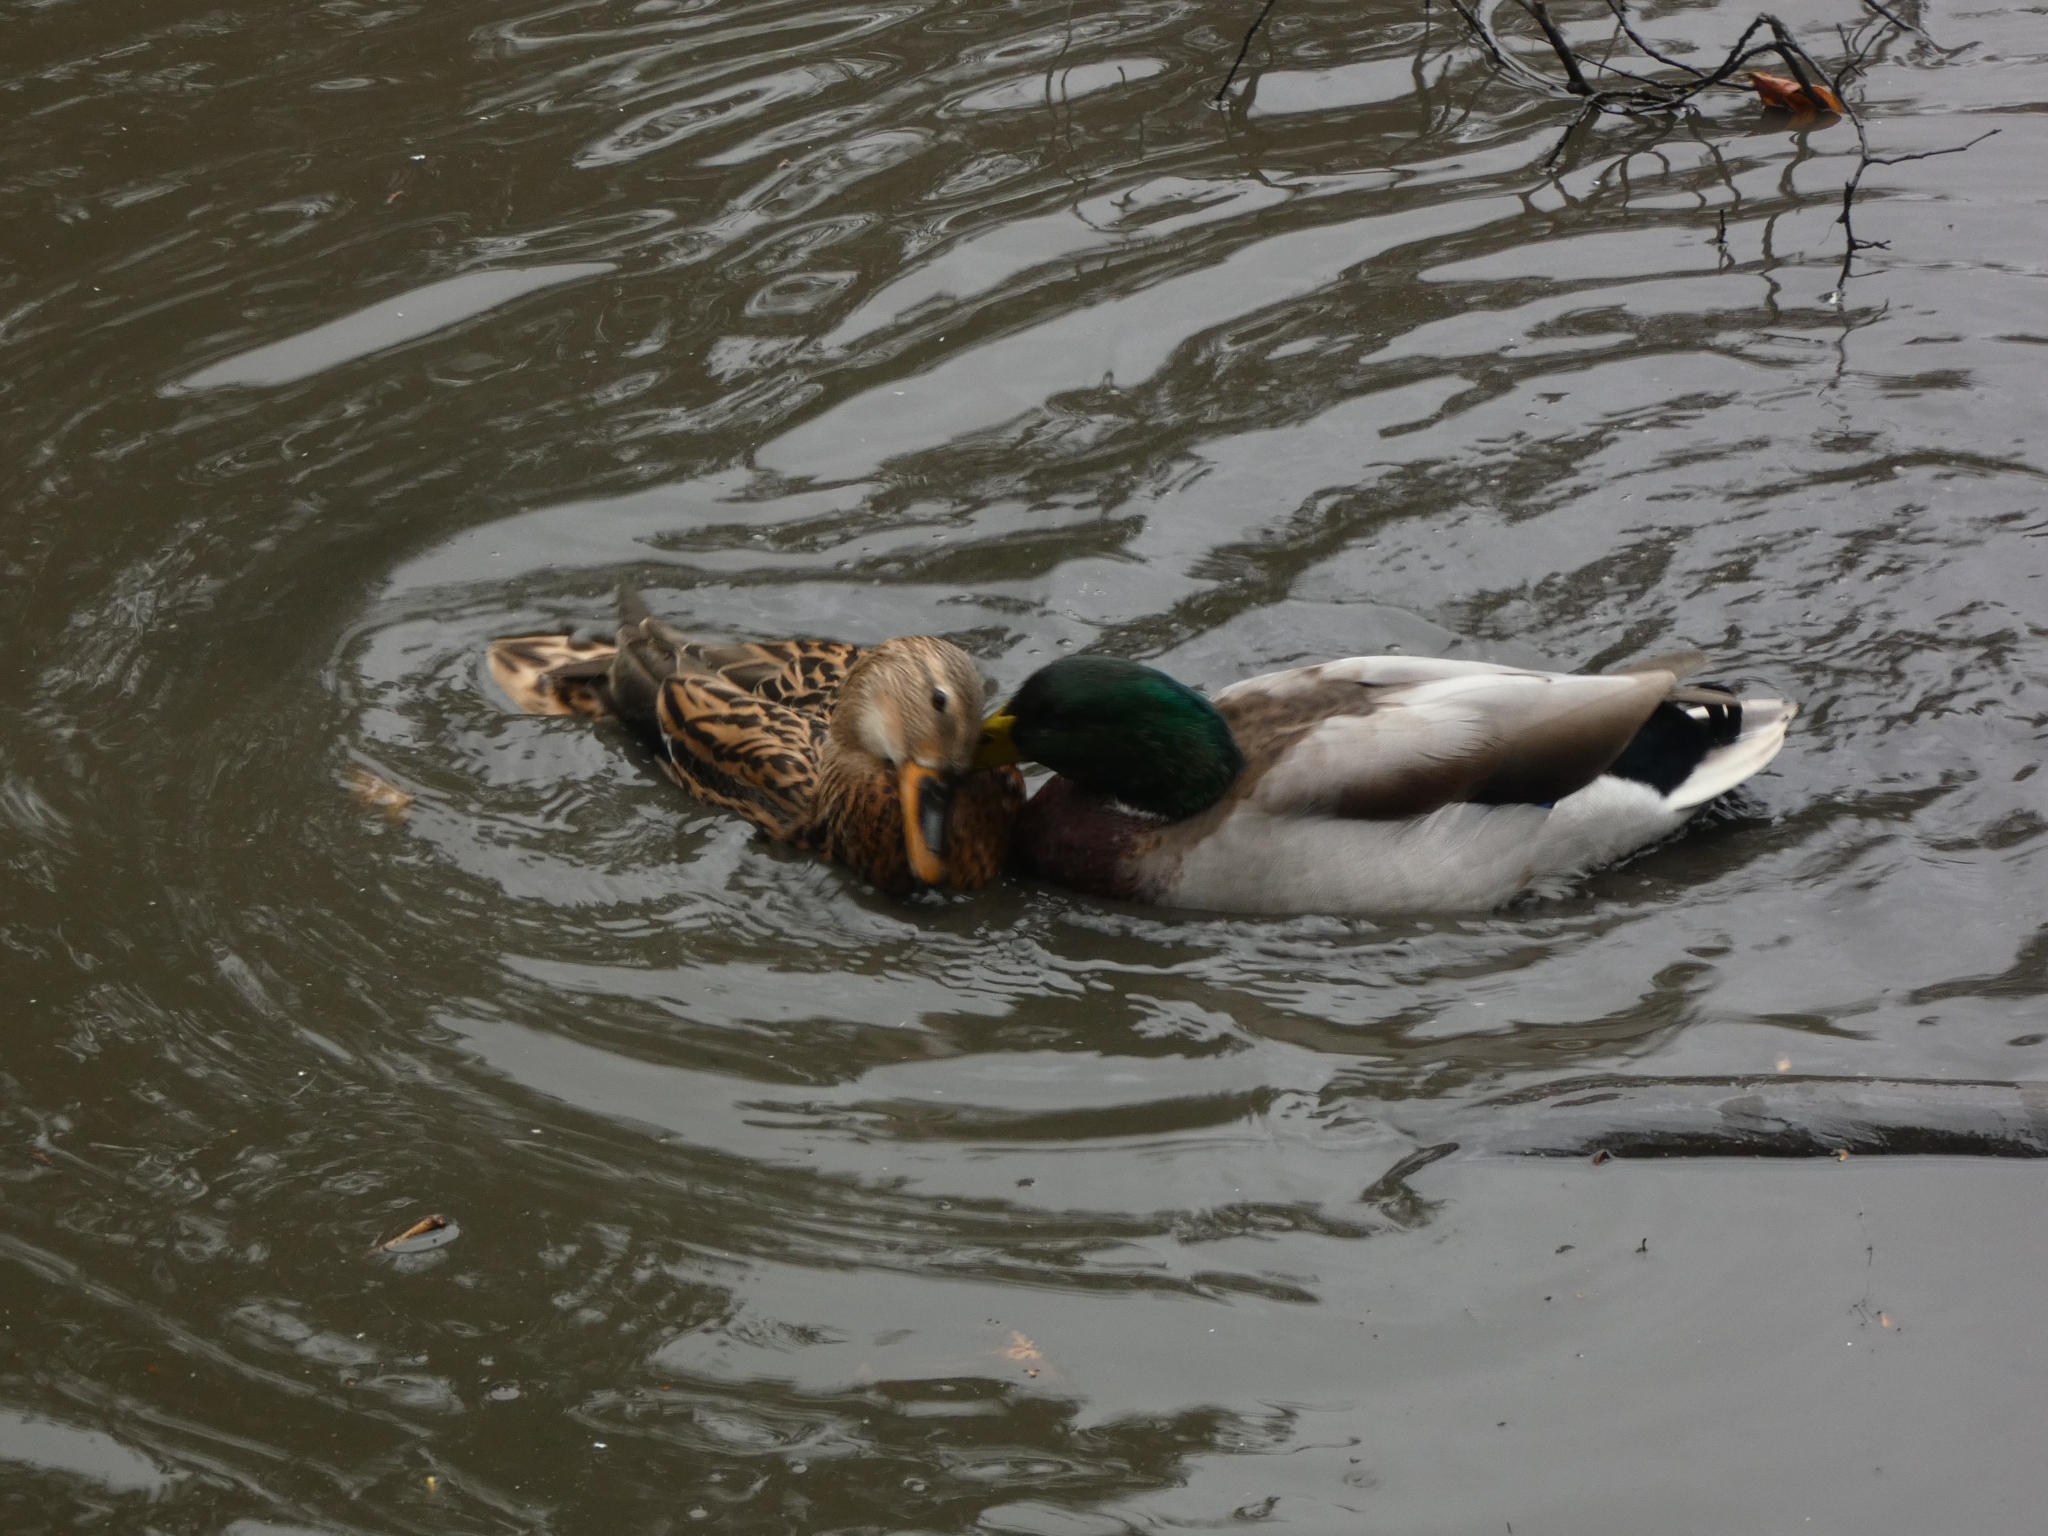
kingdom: Animalia
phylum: Chordata
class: Aves
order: Anseriformes
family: Anatidae
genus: Anas
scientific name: Anas platyrhynchos
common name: Mallard
